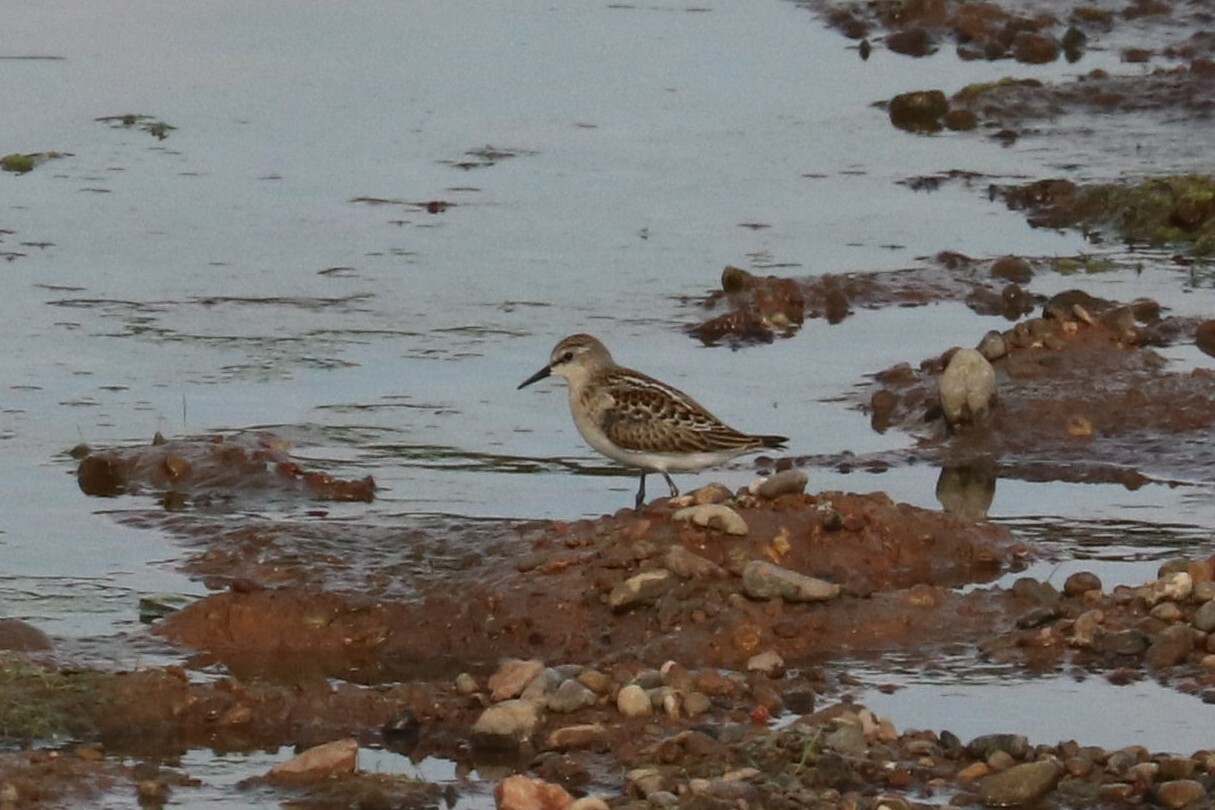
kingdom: Animalia
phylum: Chordata
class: Aves
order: Charadriiformes
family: Scolopacidae
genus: Calidris
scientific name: Calidris minuta
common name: Little stint
